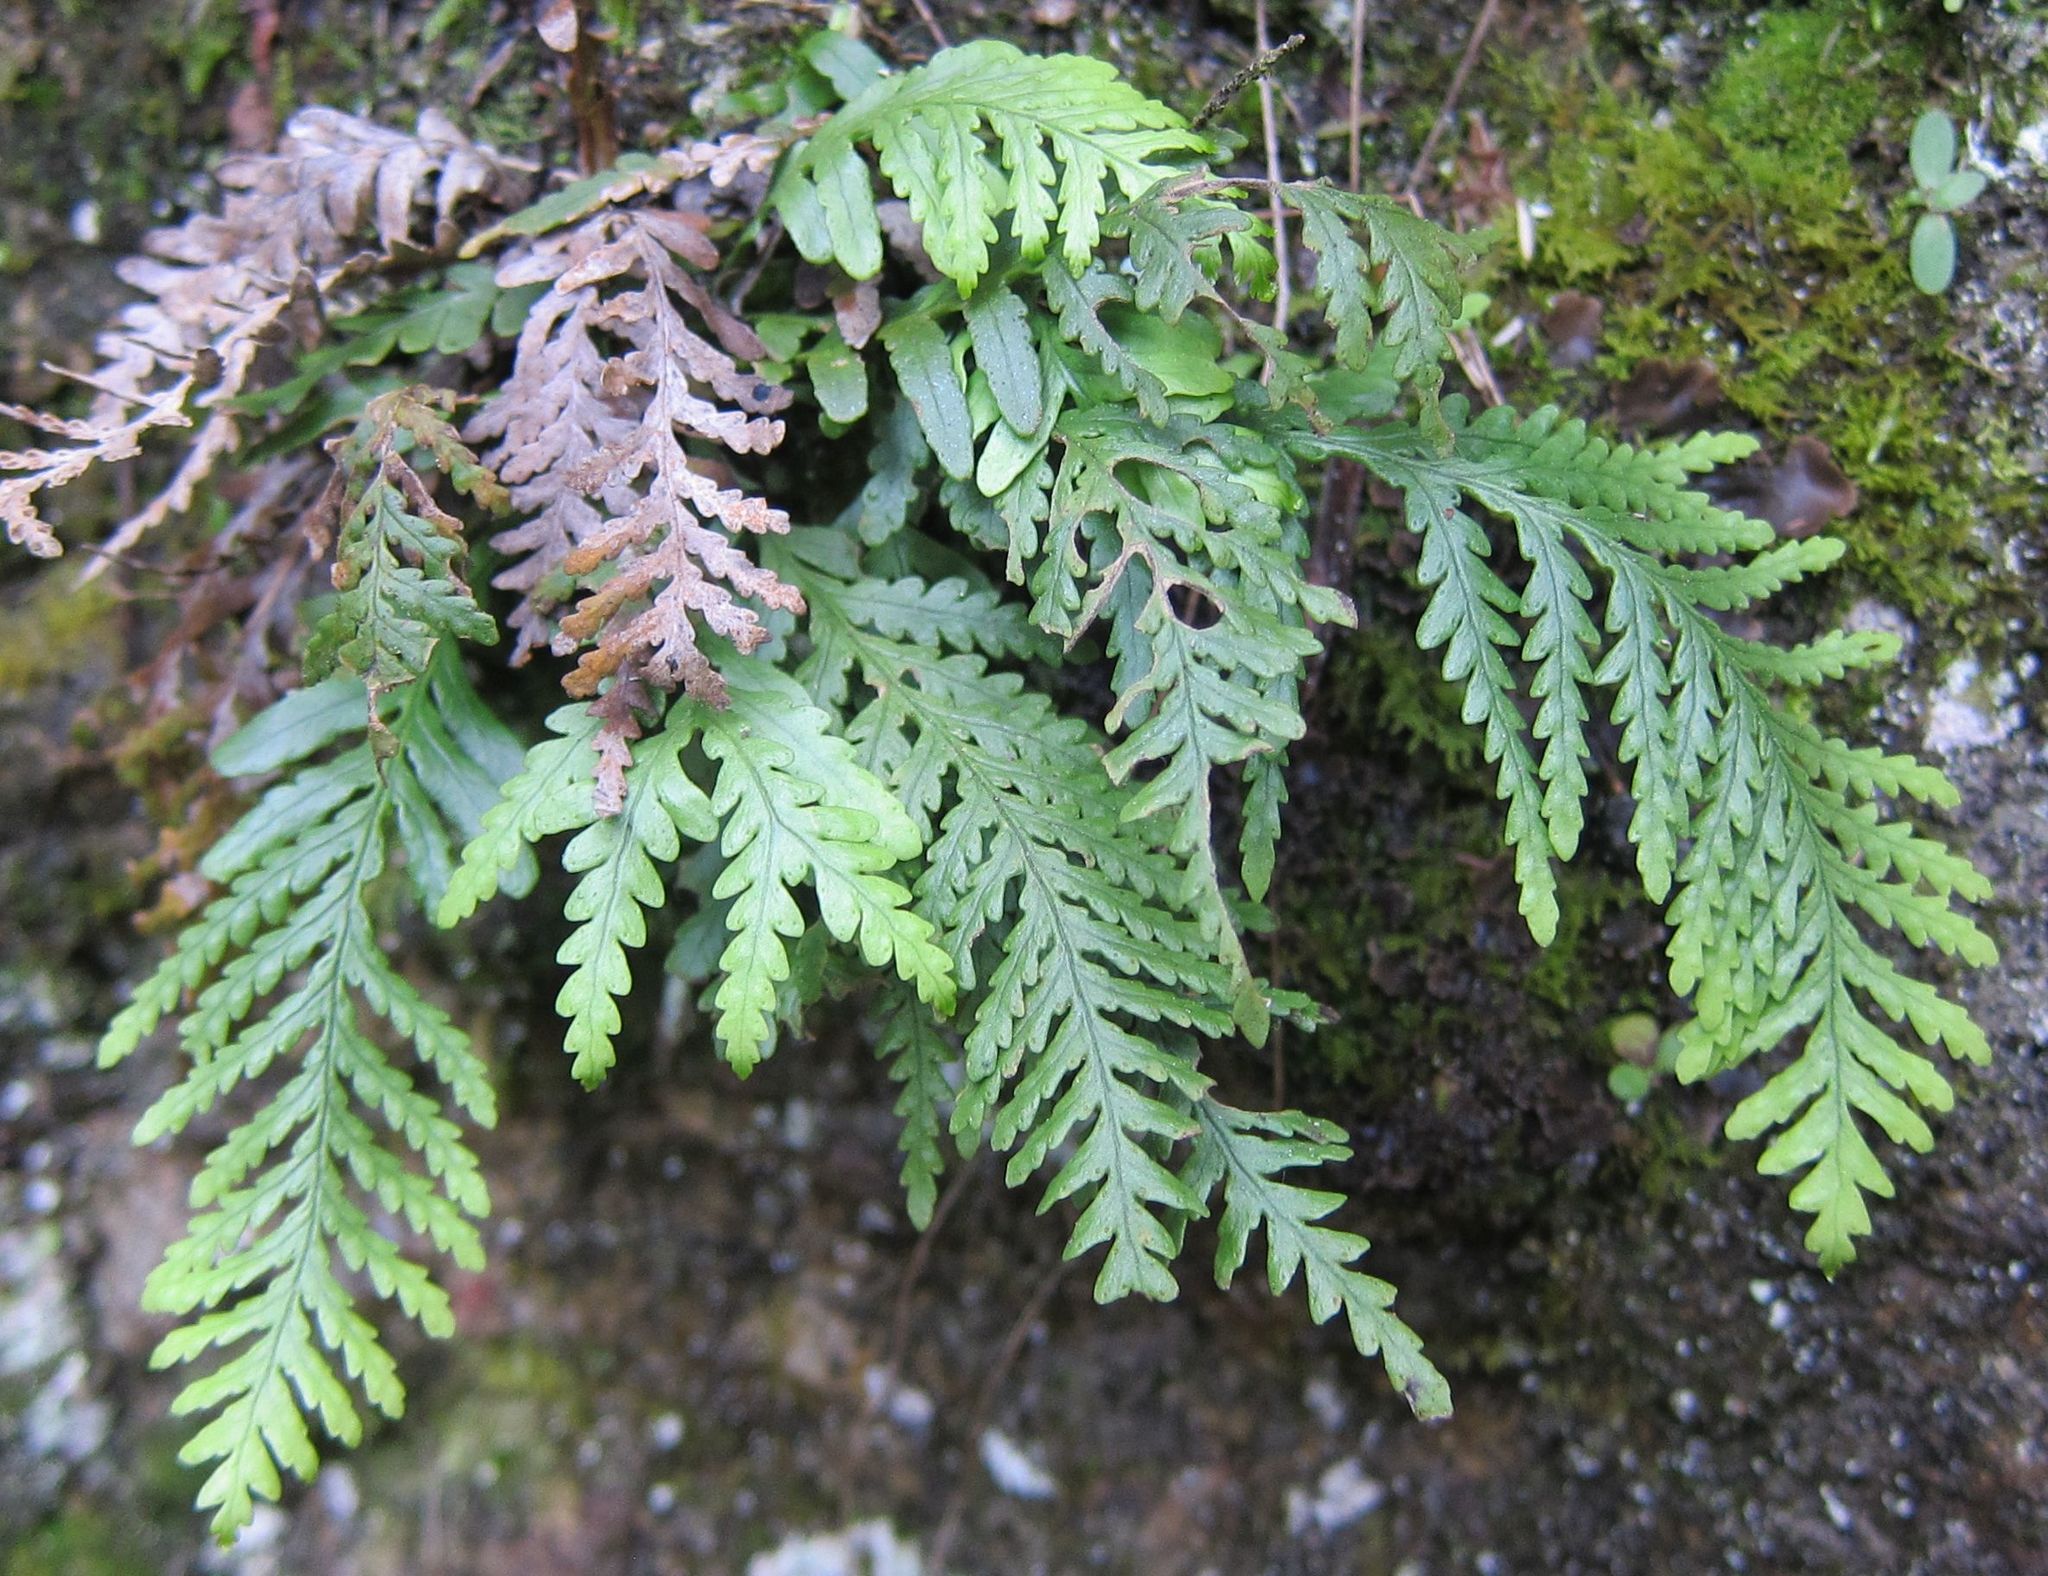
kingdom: Plantae
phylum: Tracheophyta
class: Polypodiopsida
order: Polypodiales
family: Polypodiaceae
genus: Notogrammitis
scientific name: Notogrammitis heterophylla
